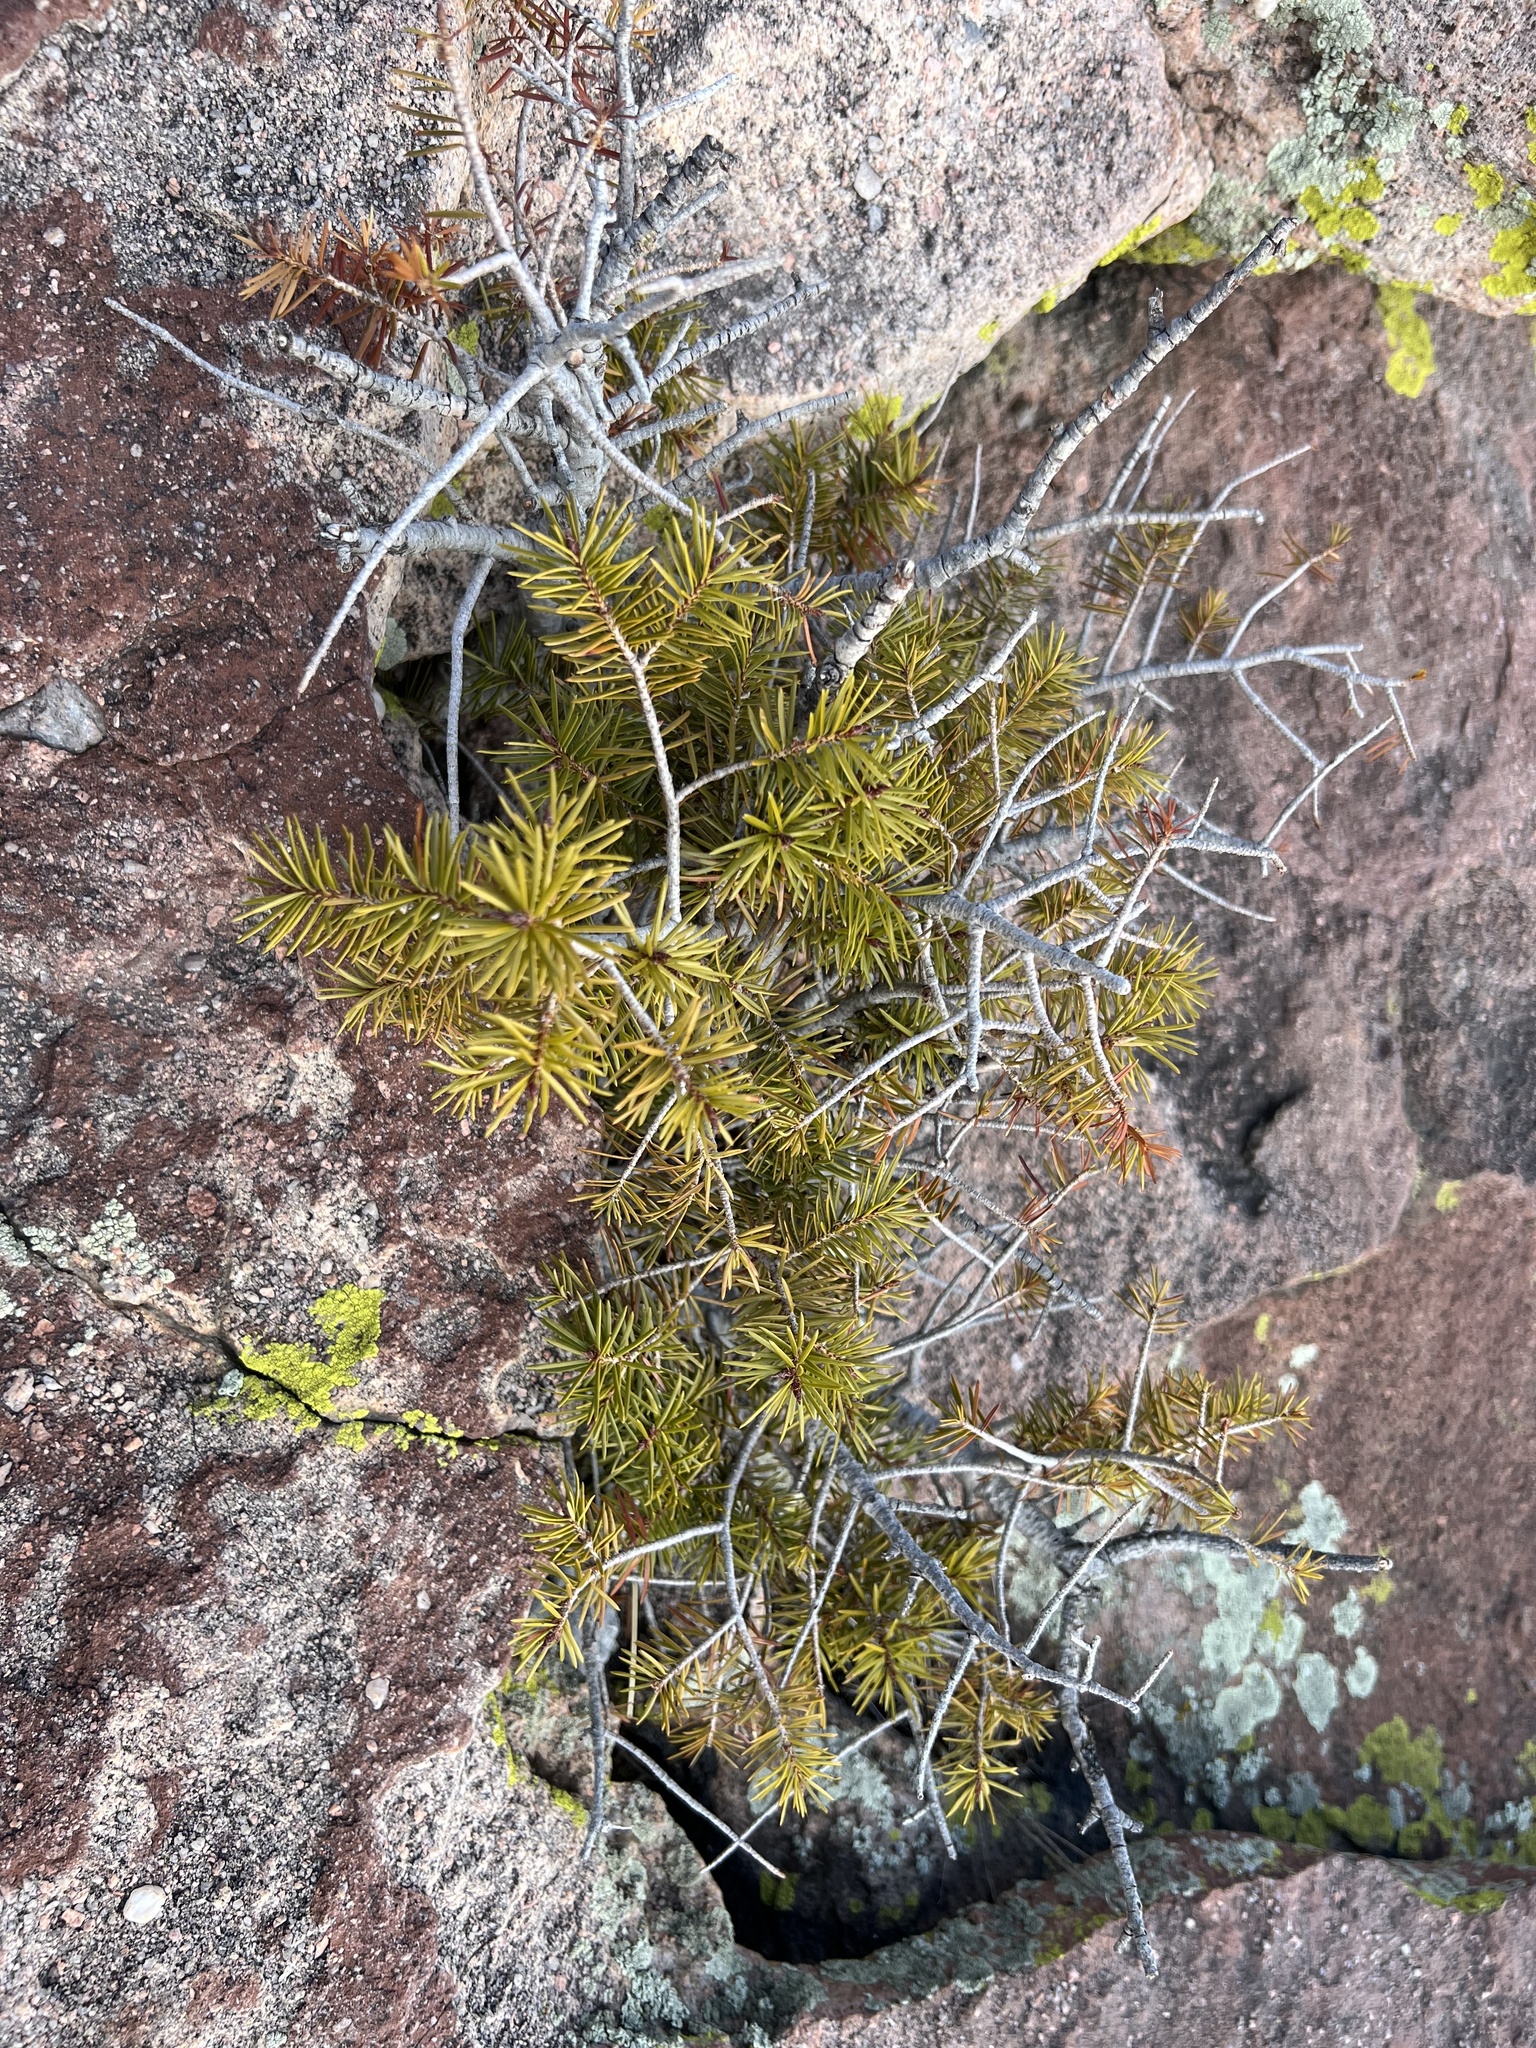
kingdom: Plantae
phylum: Tracheophyta
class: Pinopsida
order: Pinales
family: Pinaceae
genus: Pseudotsuga
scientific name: Pseudotsuga menziesii
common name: Douglas fir
